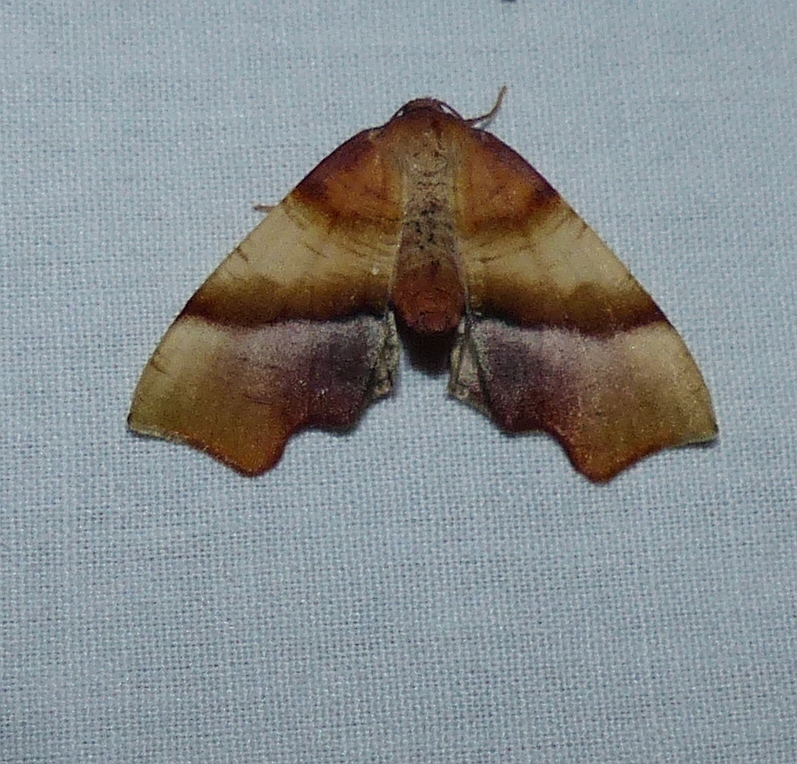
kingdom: Animalia
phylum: Arthropoda
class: Insecta
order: Lepidoptera
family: Geometridae
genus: Plagodis
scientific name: Plagodis phlogosaria
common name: Straight-lined plagodis
